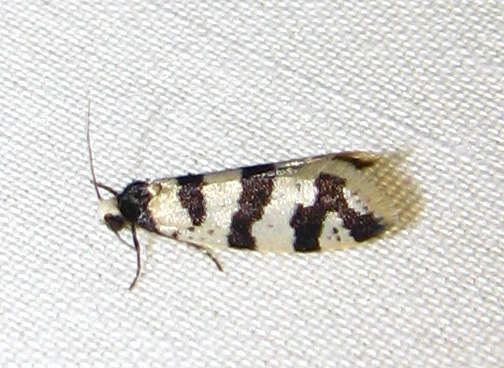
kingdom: Animalia
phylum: Arthropoda
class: Insecta
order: Lepidoptera
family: Psychidae
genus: Lepidoscia
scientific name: Lepidoscia characota
